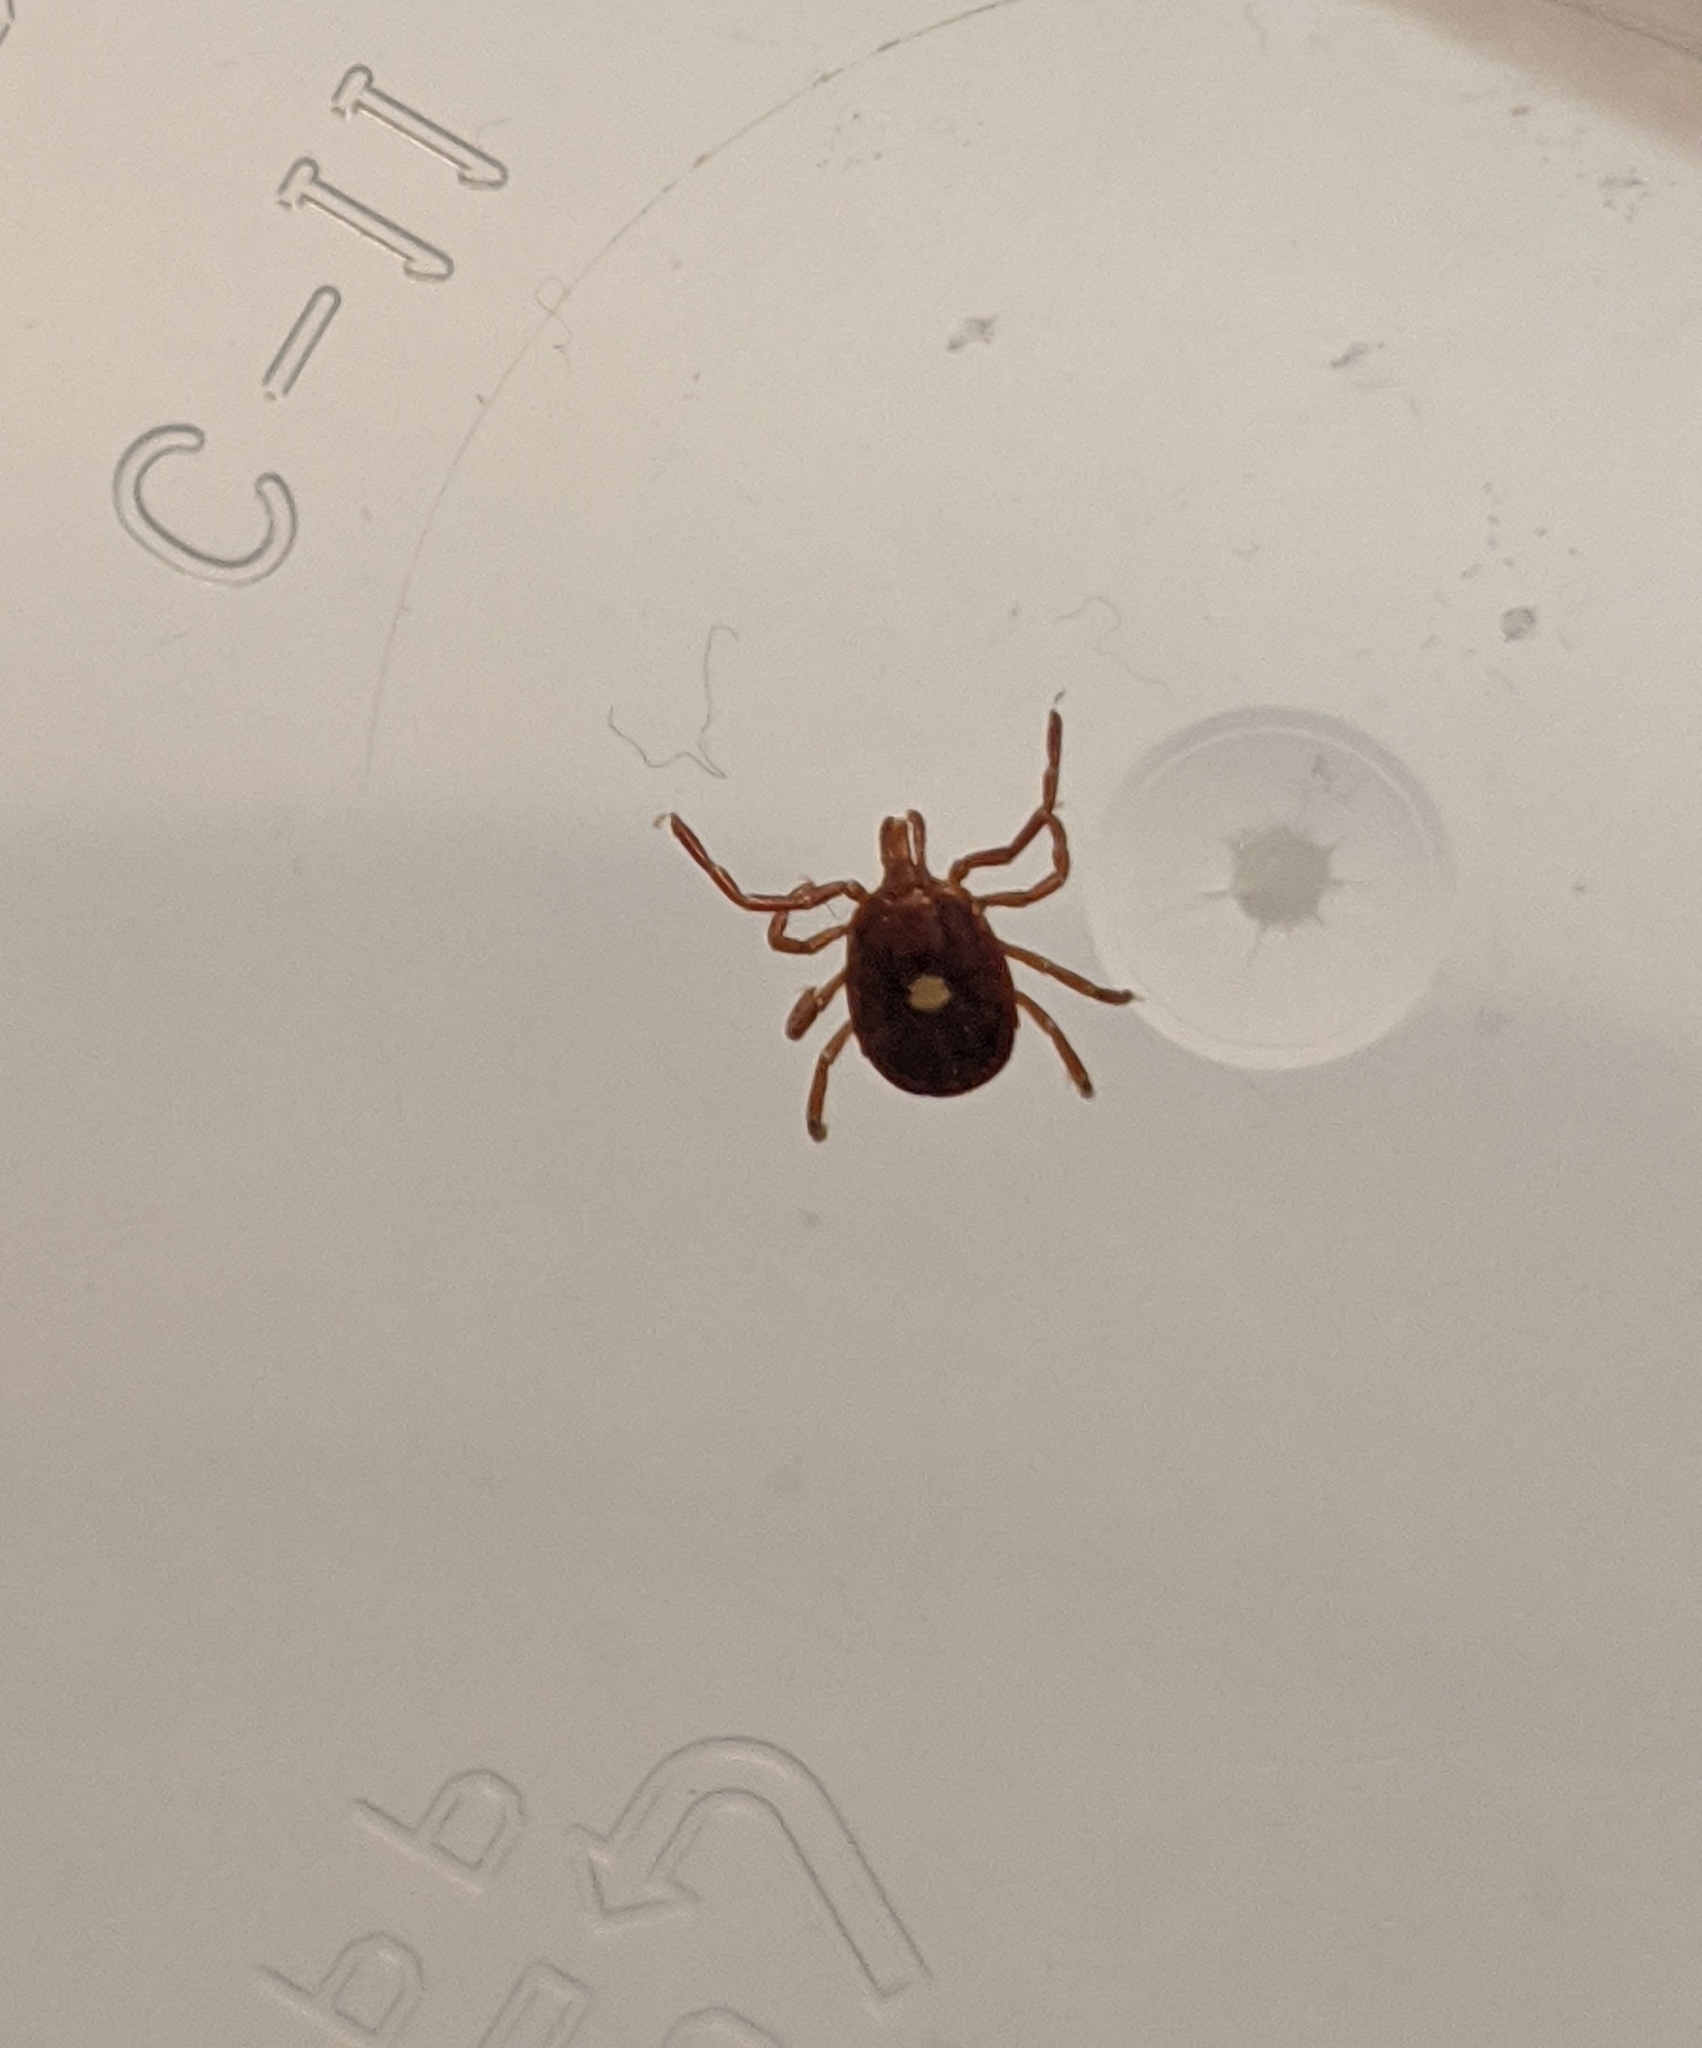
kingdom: Animalia
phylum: Arthropoda
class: Arachnida
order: Ixodida
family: Ixodidae
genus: Amblyomma
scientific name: Amblyomma americanum
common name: Lone star tick
